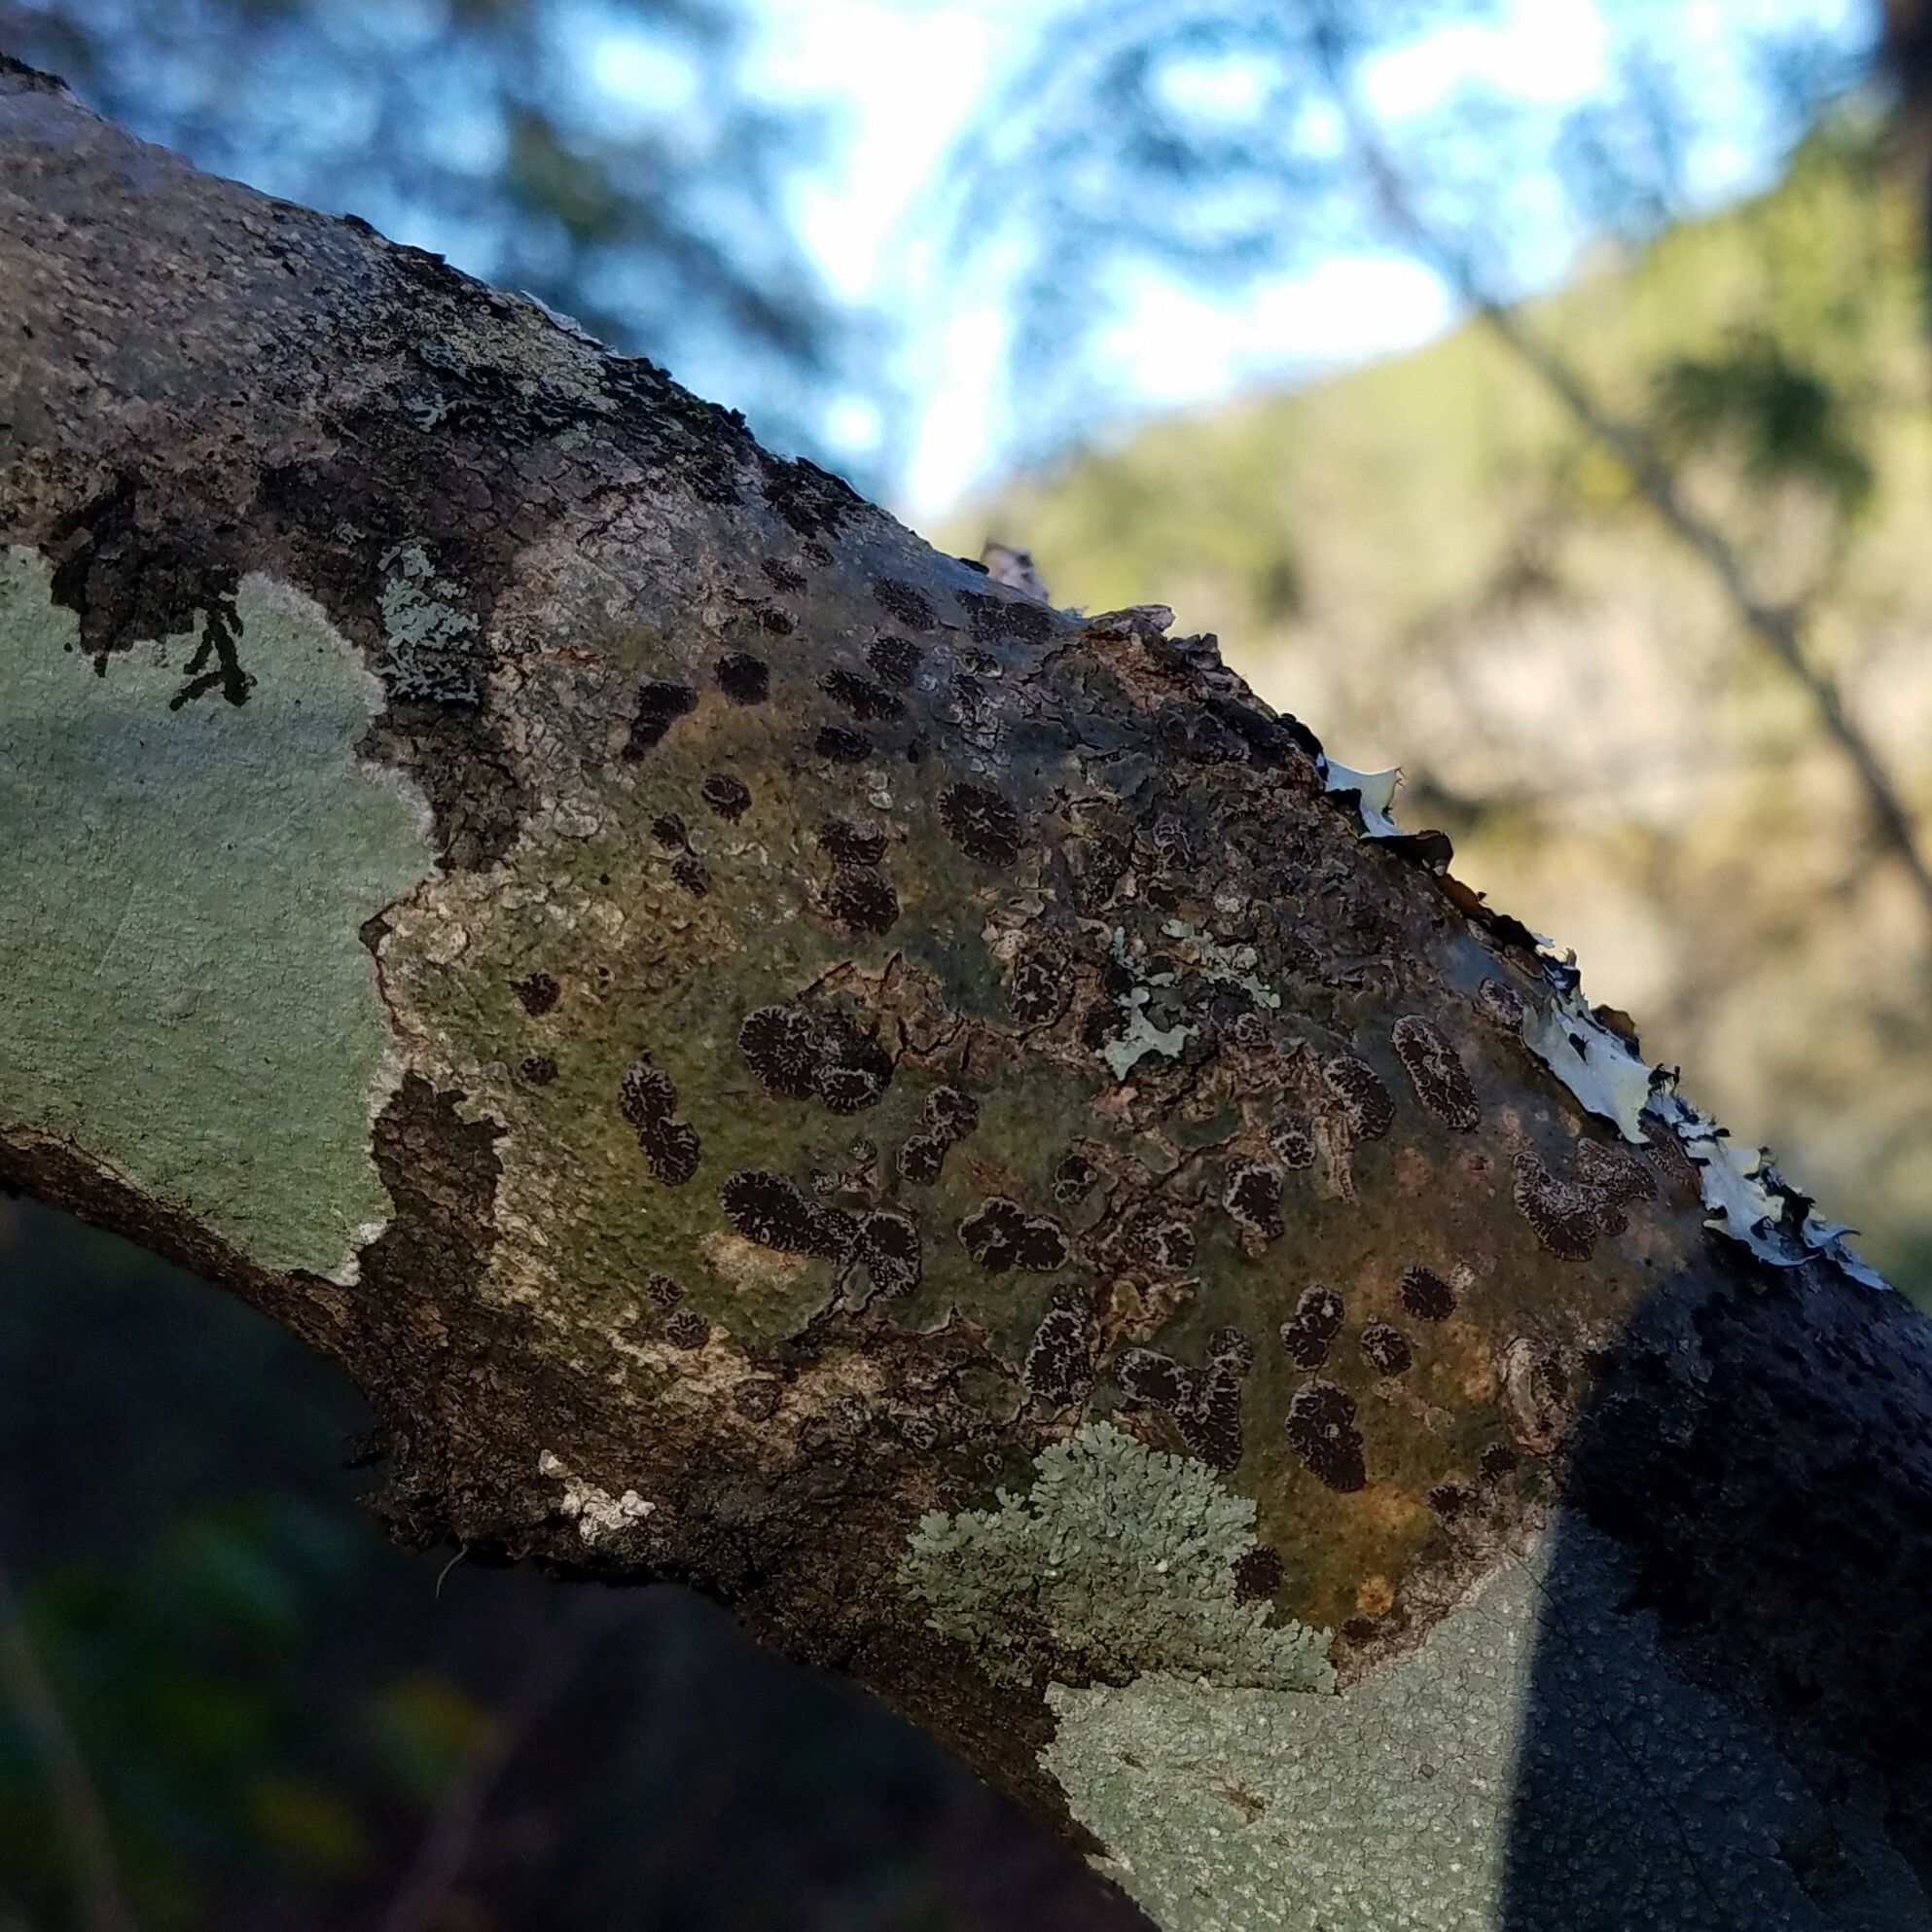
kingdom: Fungi
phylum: Ascomycota
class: Lecanoromycetes
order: Ostropales
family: Graphidaceae
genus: Glyphis
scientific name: Glyphis cicatricosa
